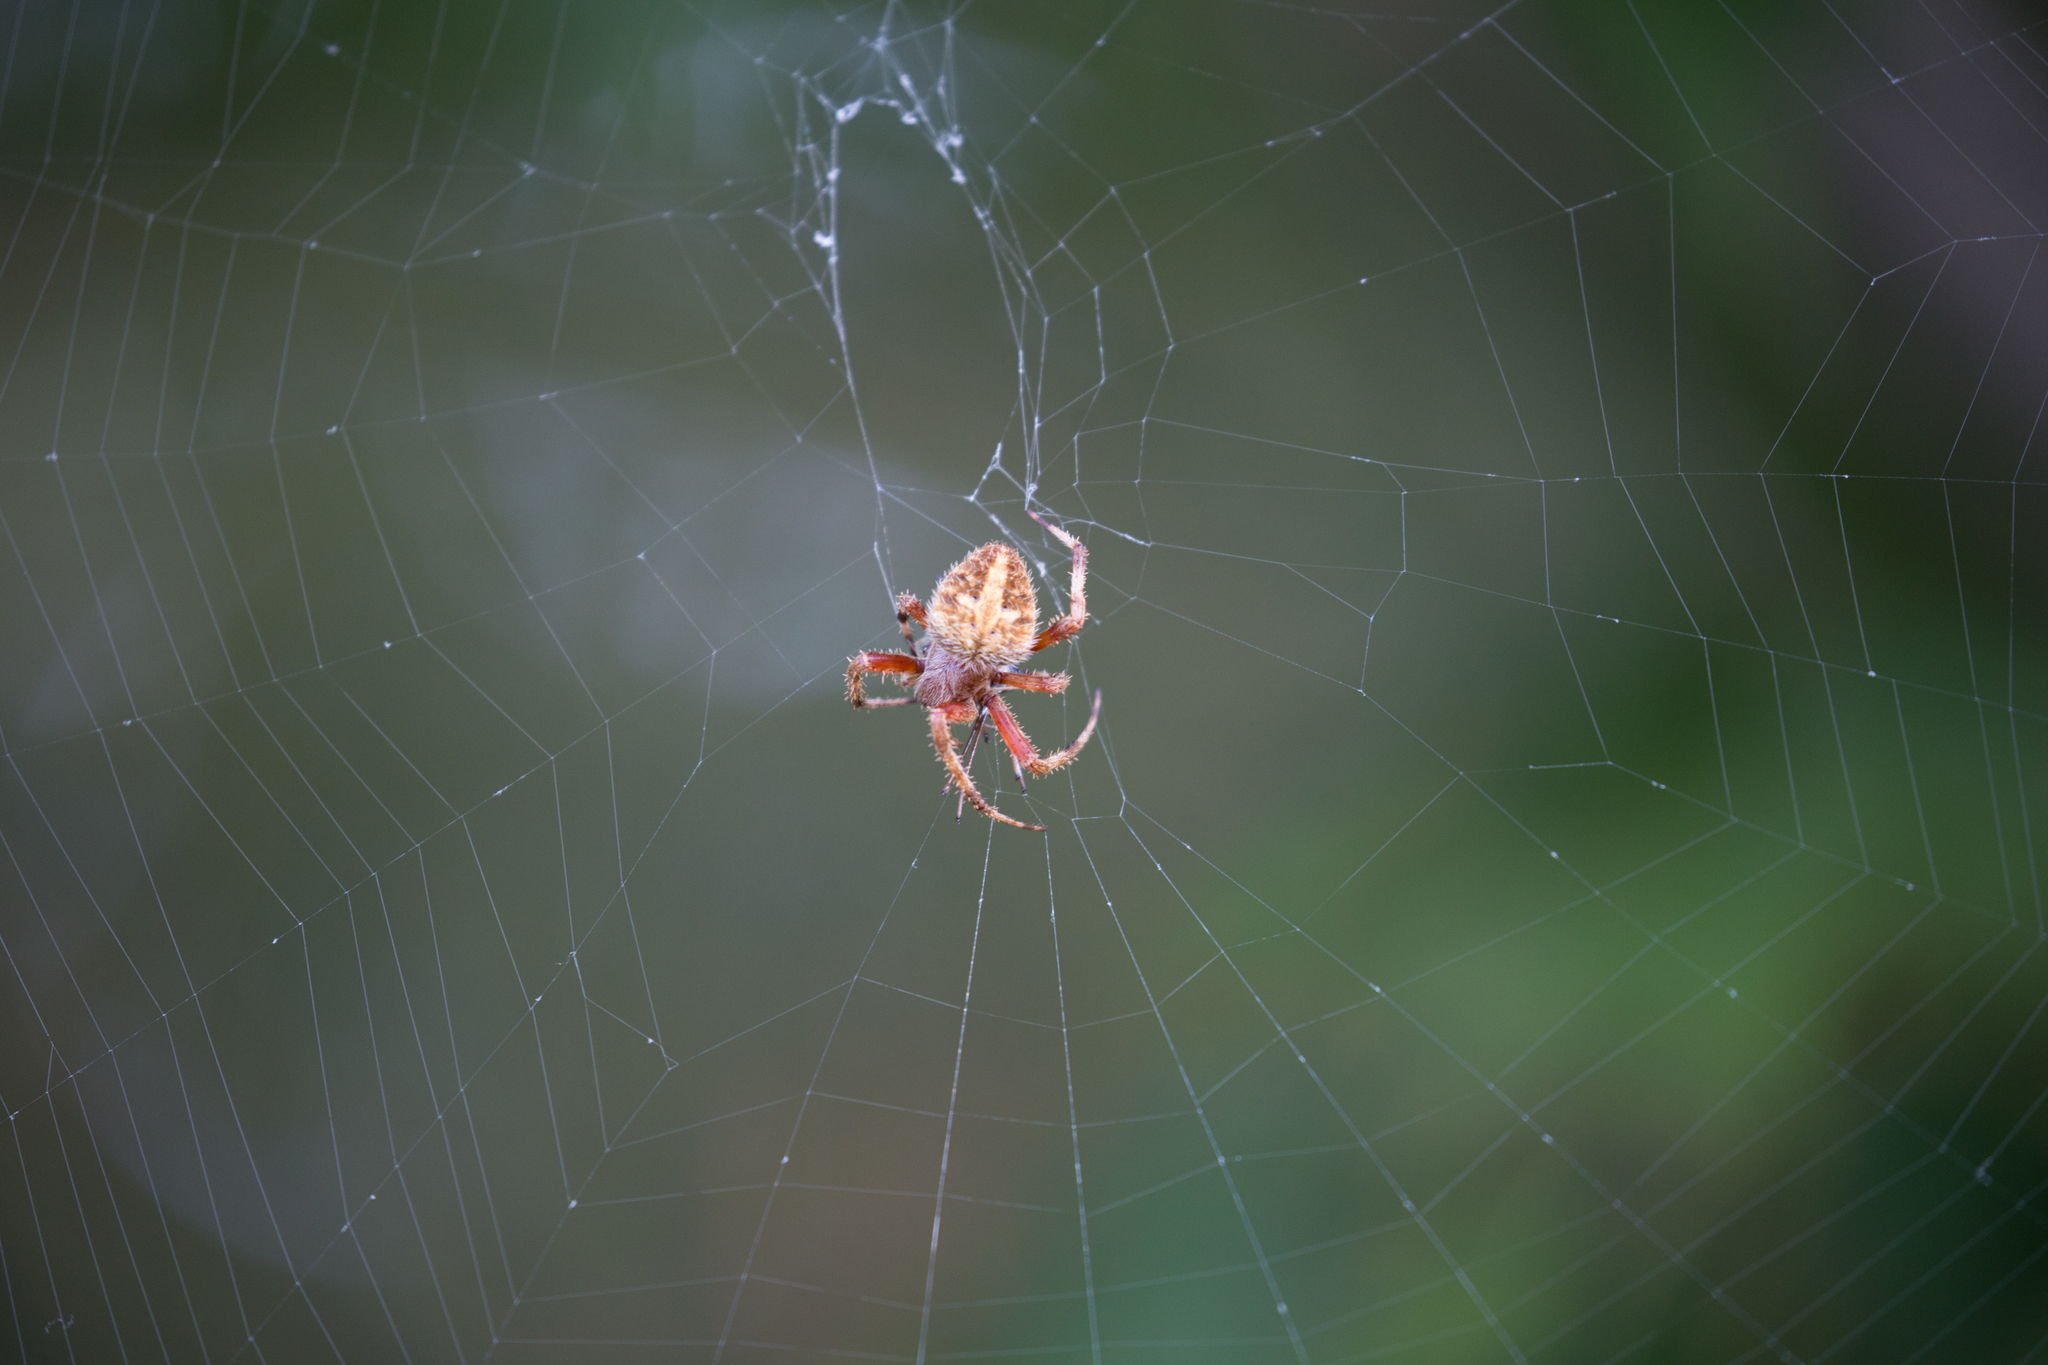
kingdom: Animalia
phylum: Arthropoda
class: Arachnida
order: Araneae
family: Araneidae
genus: Neoscona
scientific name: Neoscona crucifera
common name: Spotted orbweaver
